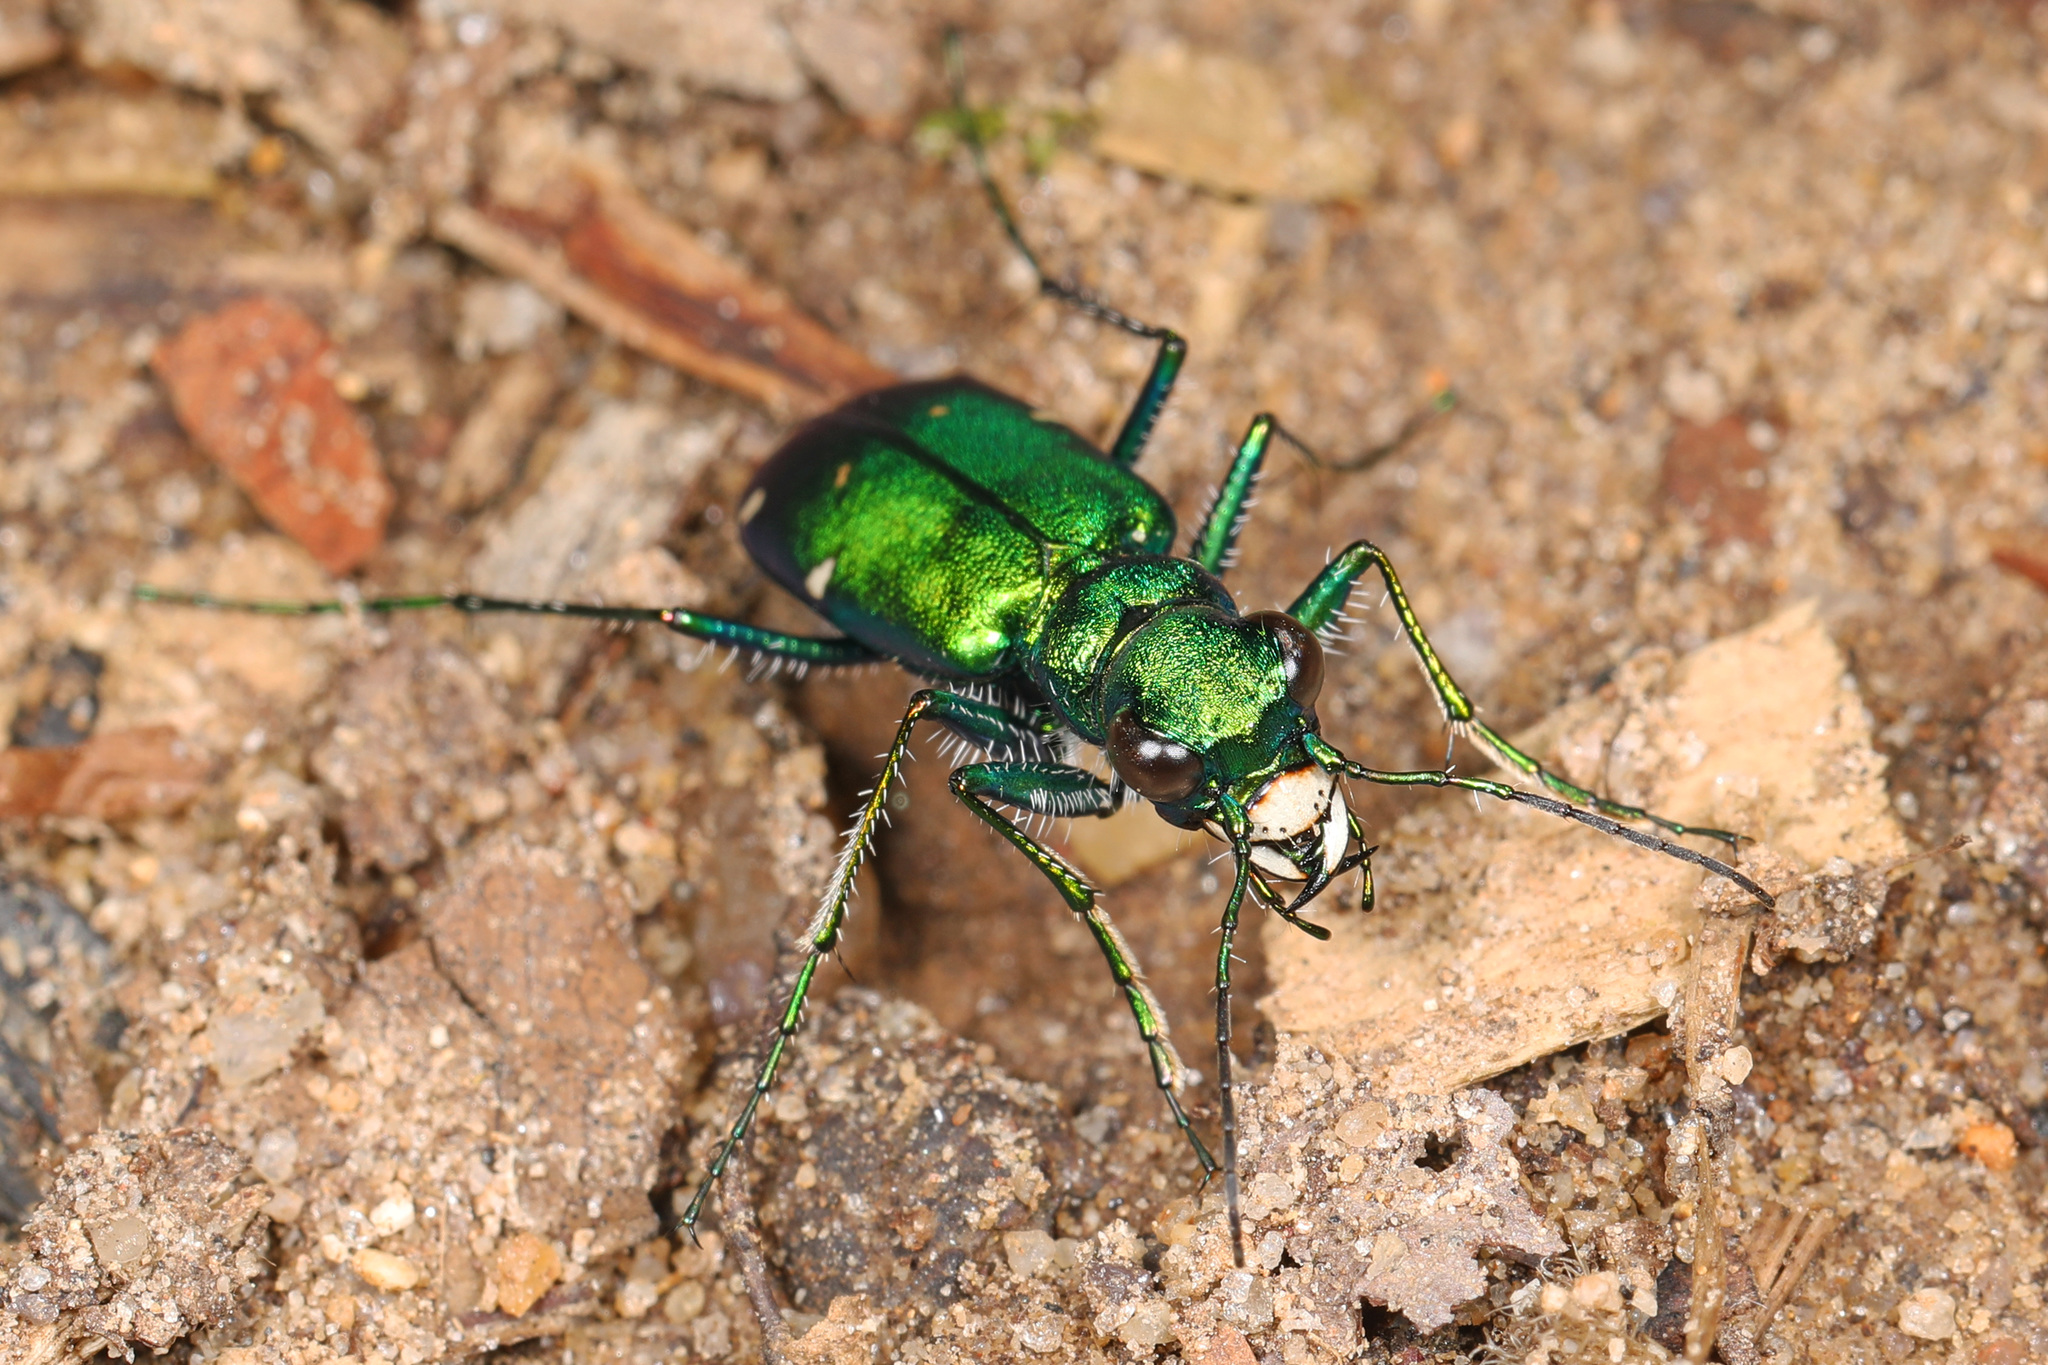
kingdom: Animalia
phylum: Arthropoda
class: Insecta
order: Coleoptera
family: Carabidae
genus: Cicindela
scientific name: Cicindela sexguttata
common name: Six-spotted tiger beetle
